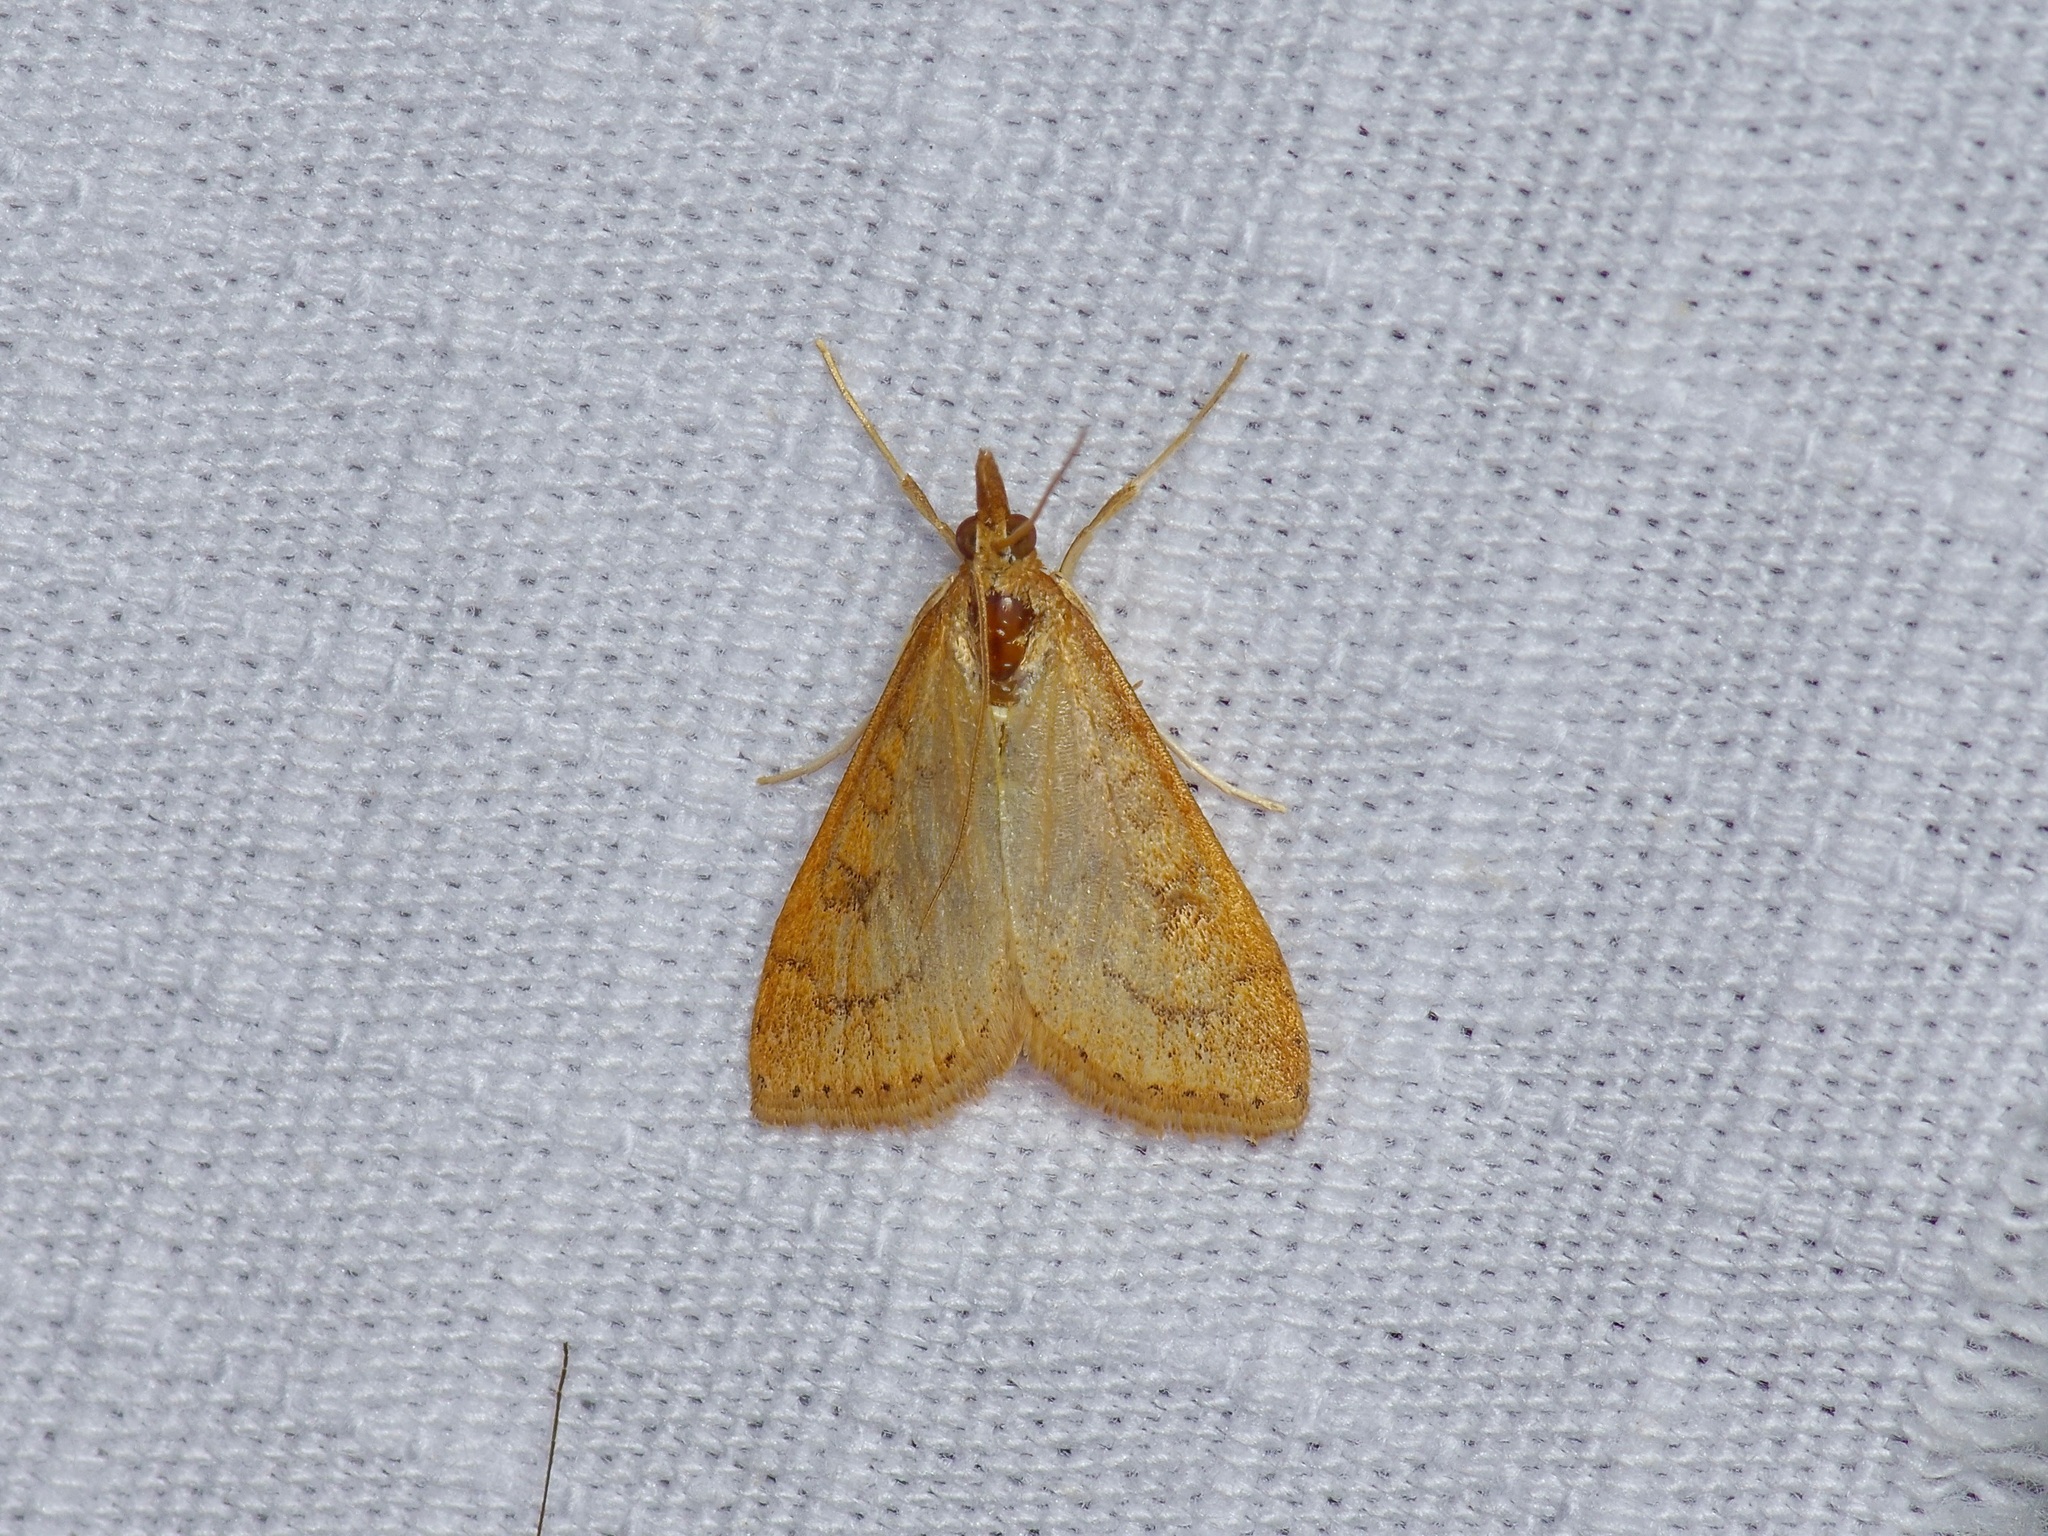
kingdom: Animalia
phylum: Arthropoda
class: Insecta
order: Lepidoptera
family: Crambidae
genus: Udea
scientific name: Udea rubigalis
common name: Celery leaftier moth
